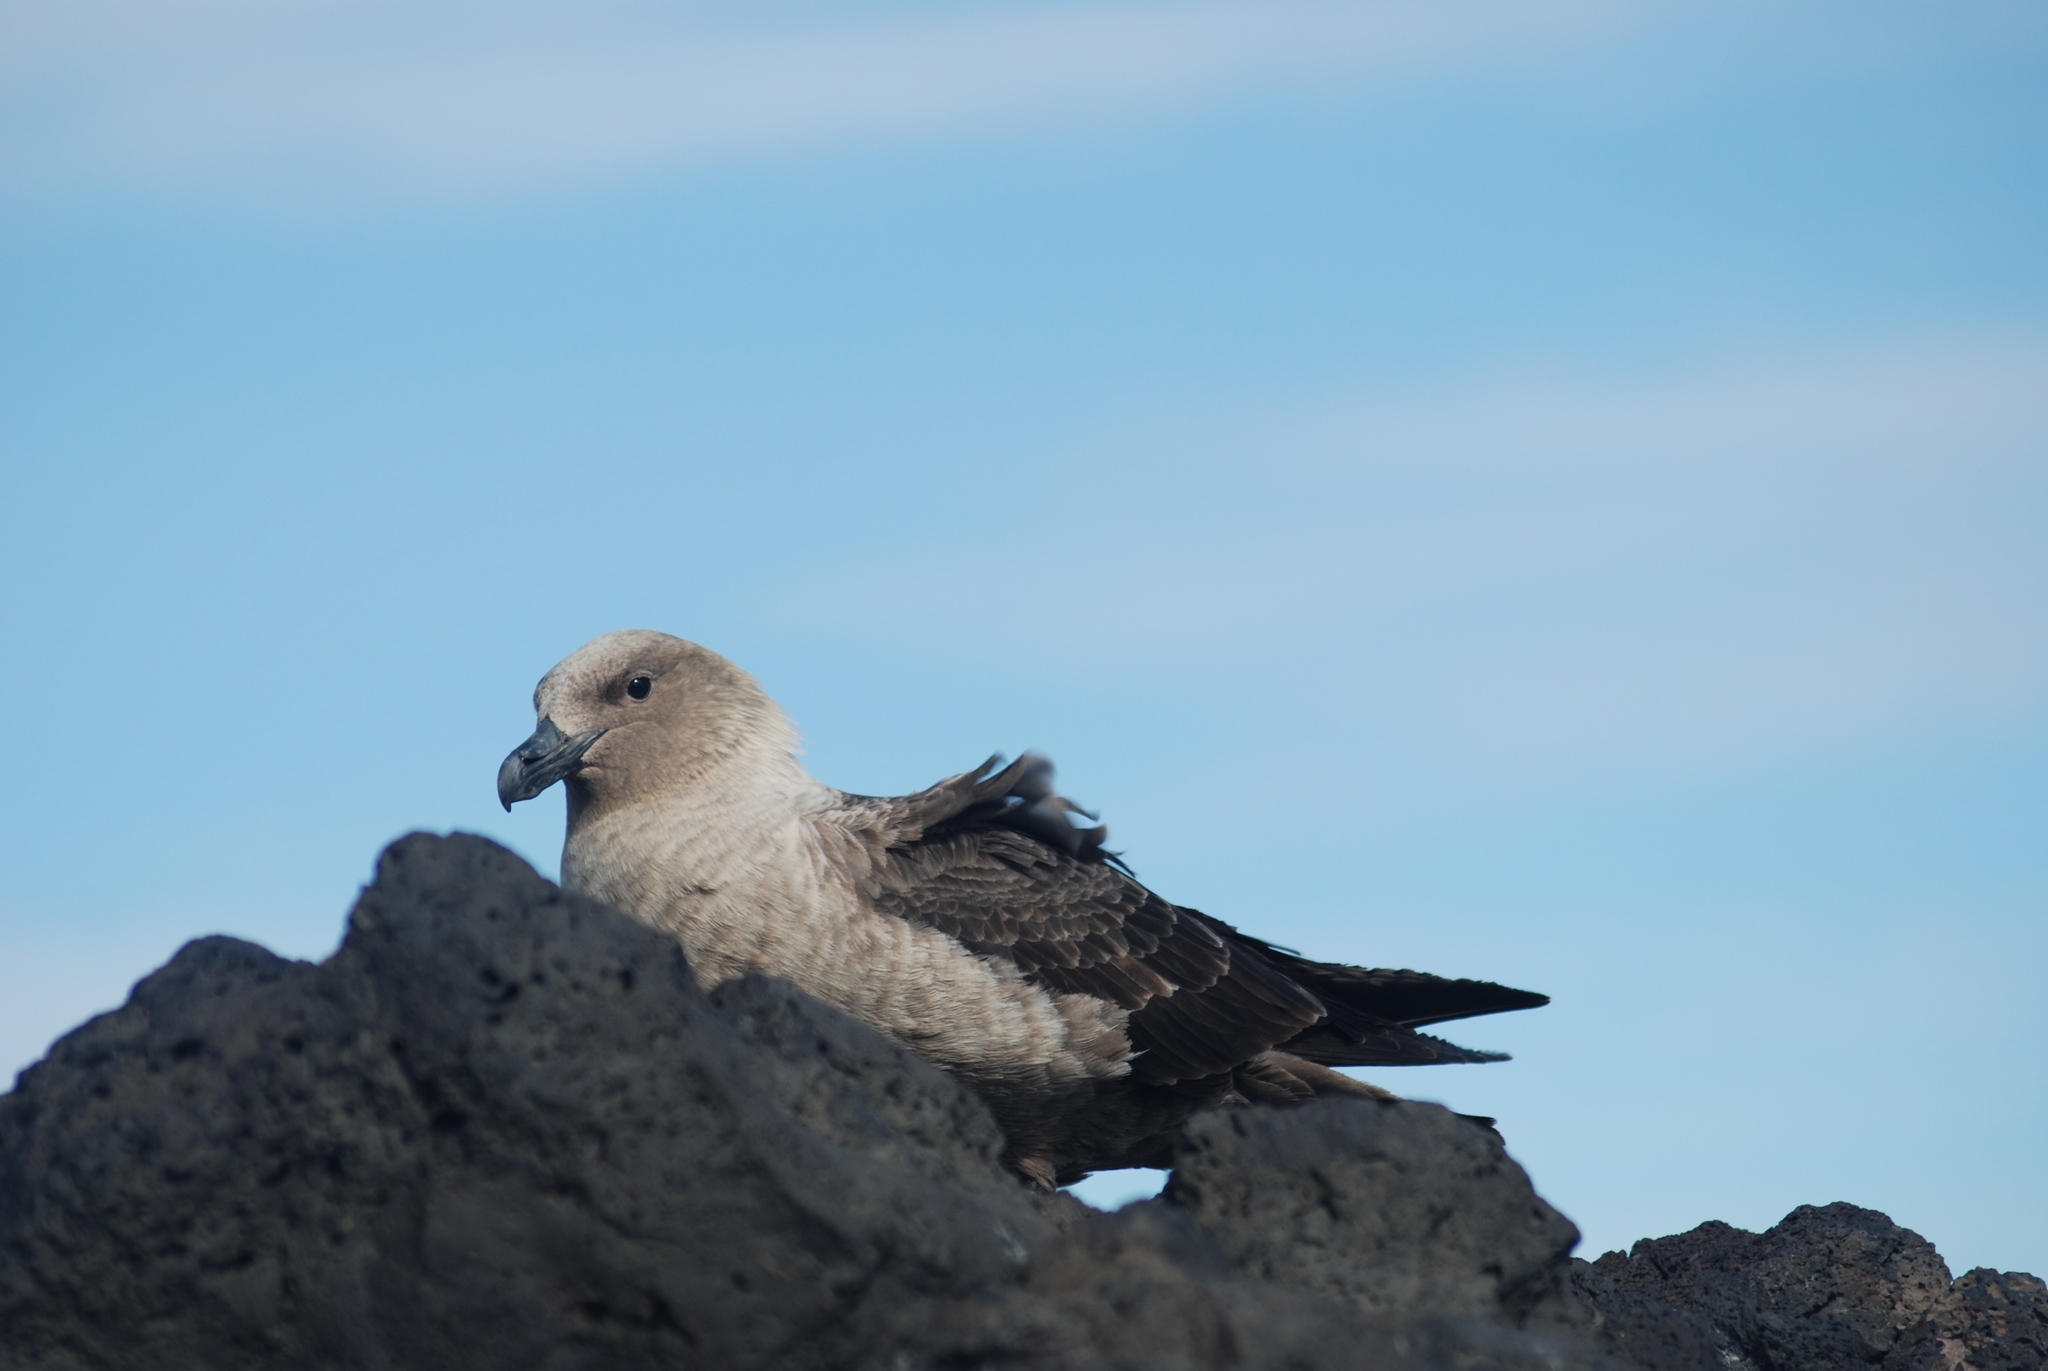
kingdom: Animalia
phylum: Chordata
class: Aves
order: Charadriiformes
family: Stercorariidae
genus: Stercorarius
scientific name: Stercorarius maccormicki
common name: South polar skua
